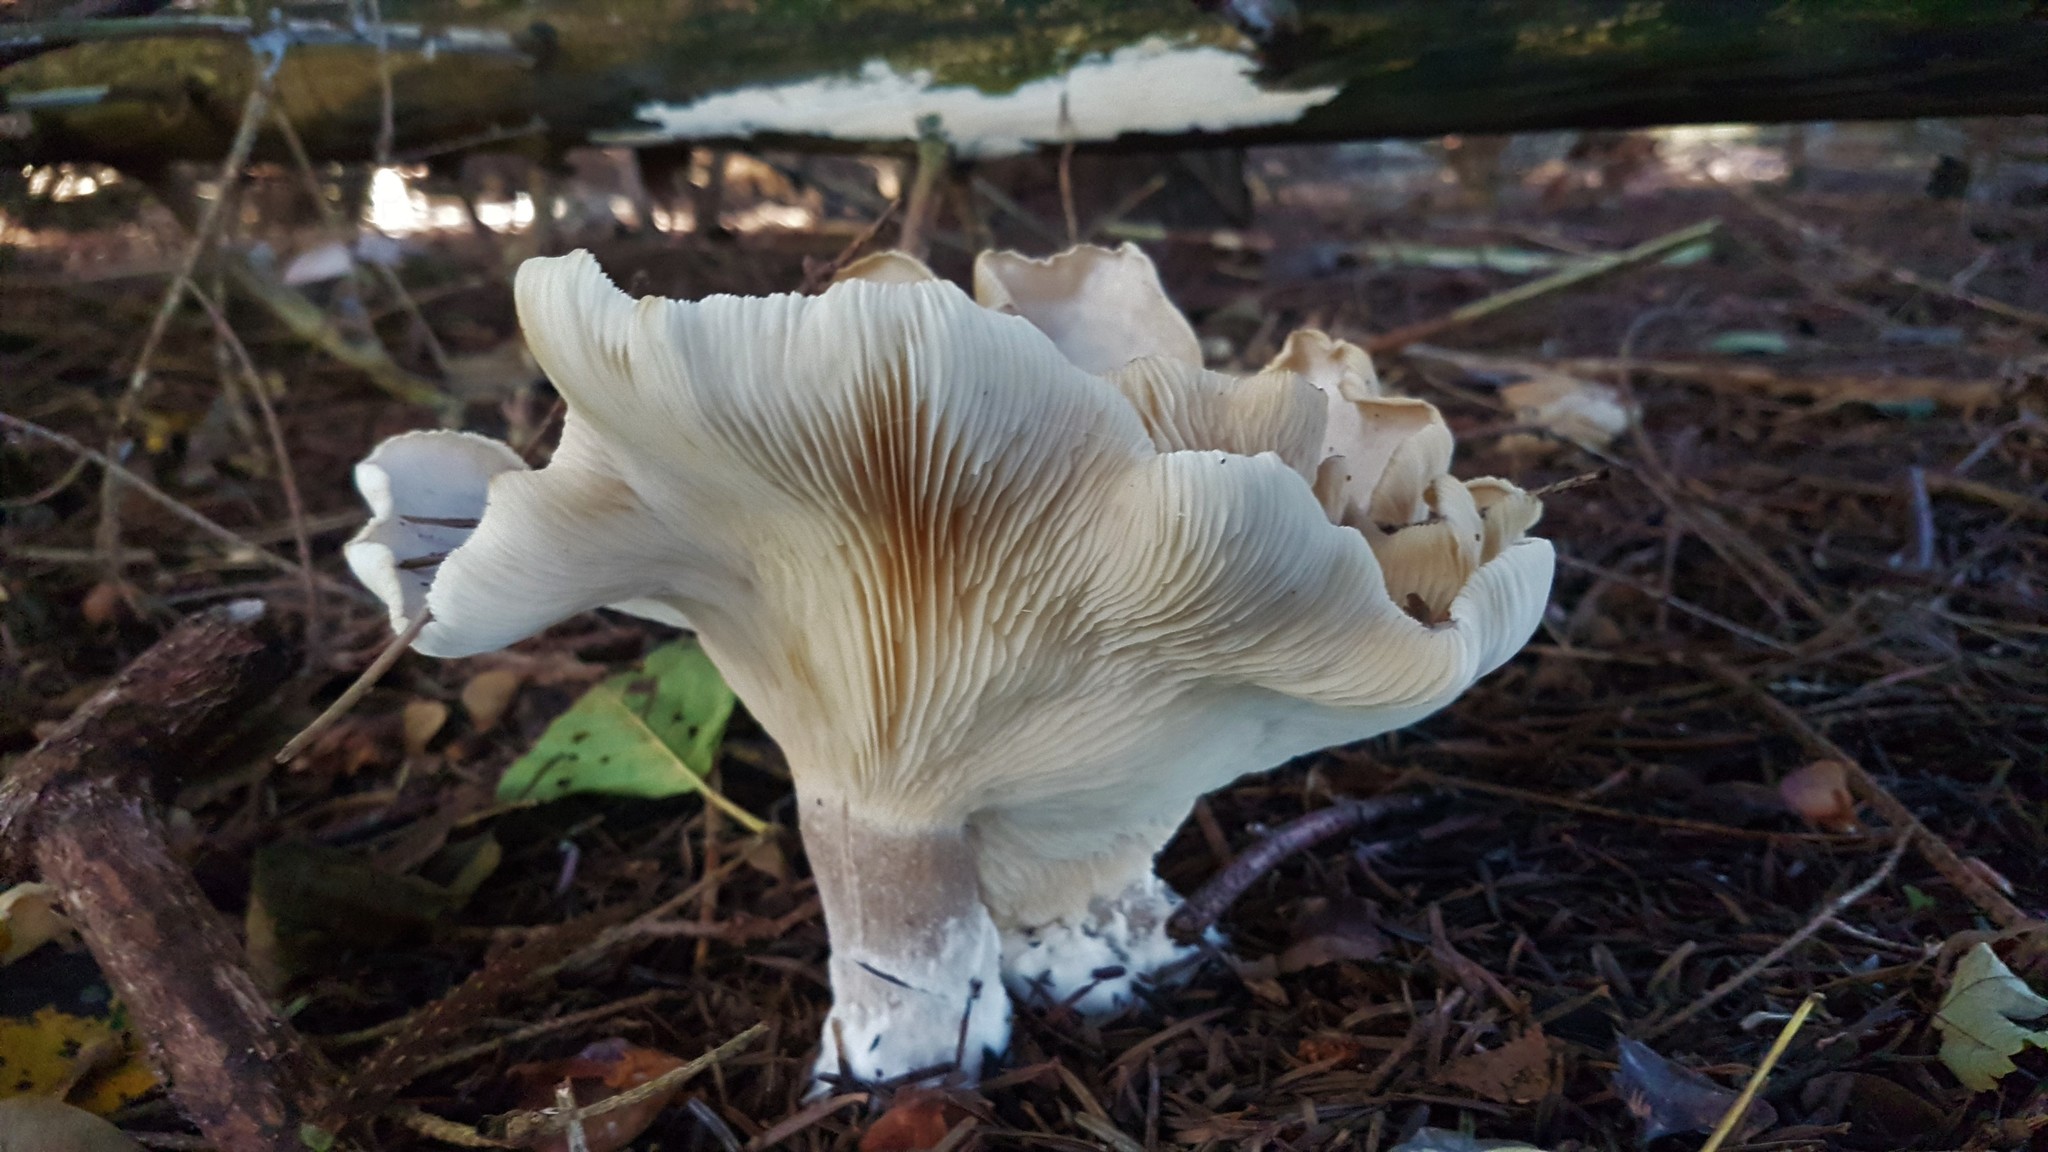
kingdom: Fungi
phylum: Basidiomycota
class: Agaricomycetes
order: Agaricales
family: Tricholomataceae
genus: Clitocybe
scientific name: Clitocybe nebularis
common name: Clouded agaric
